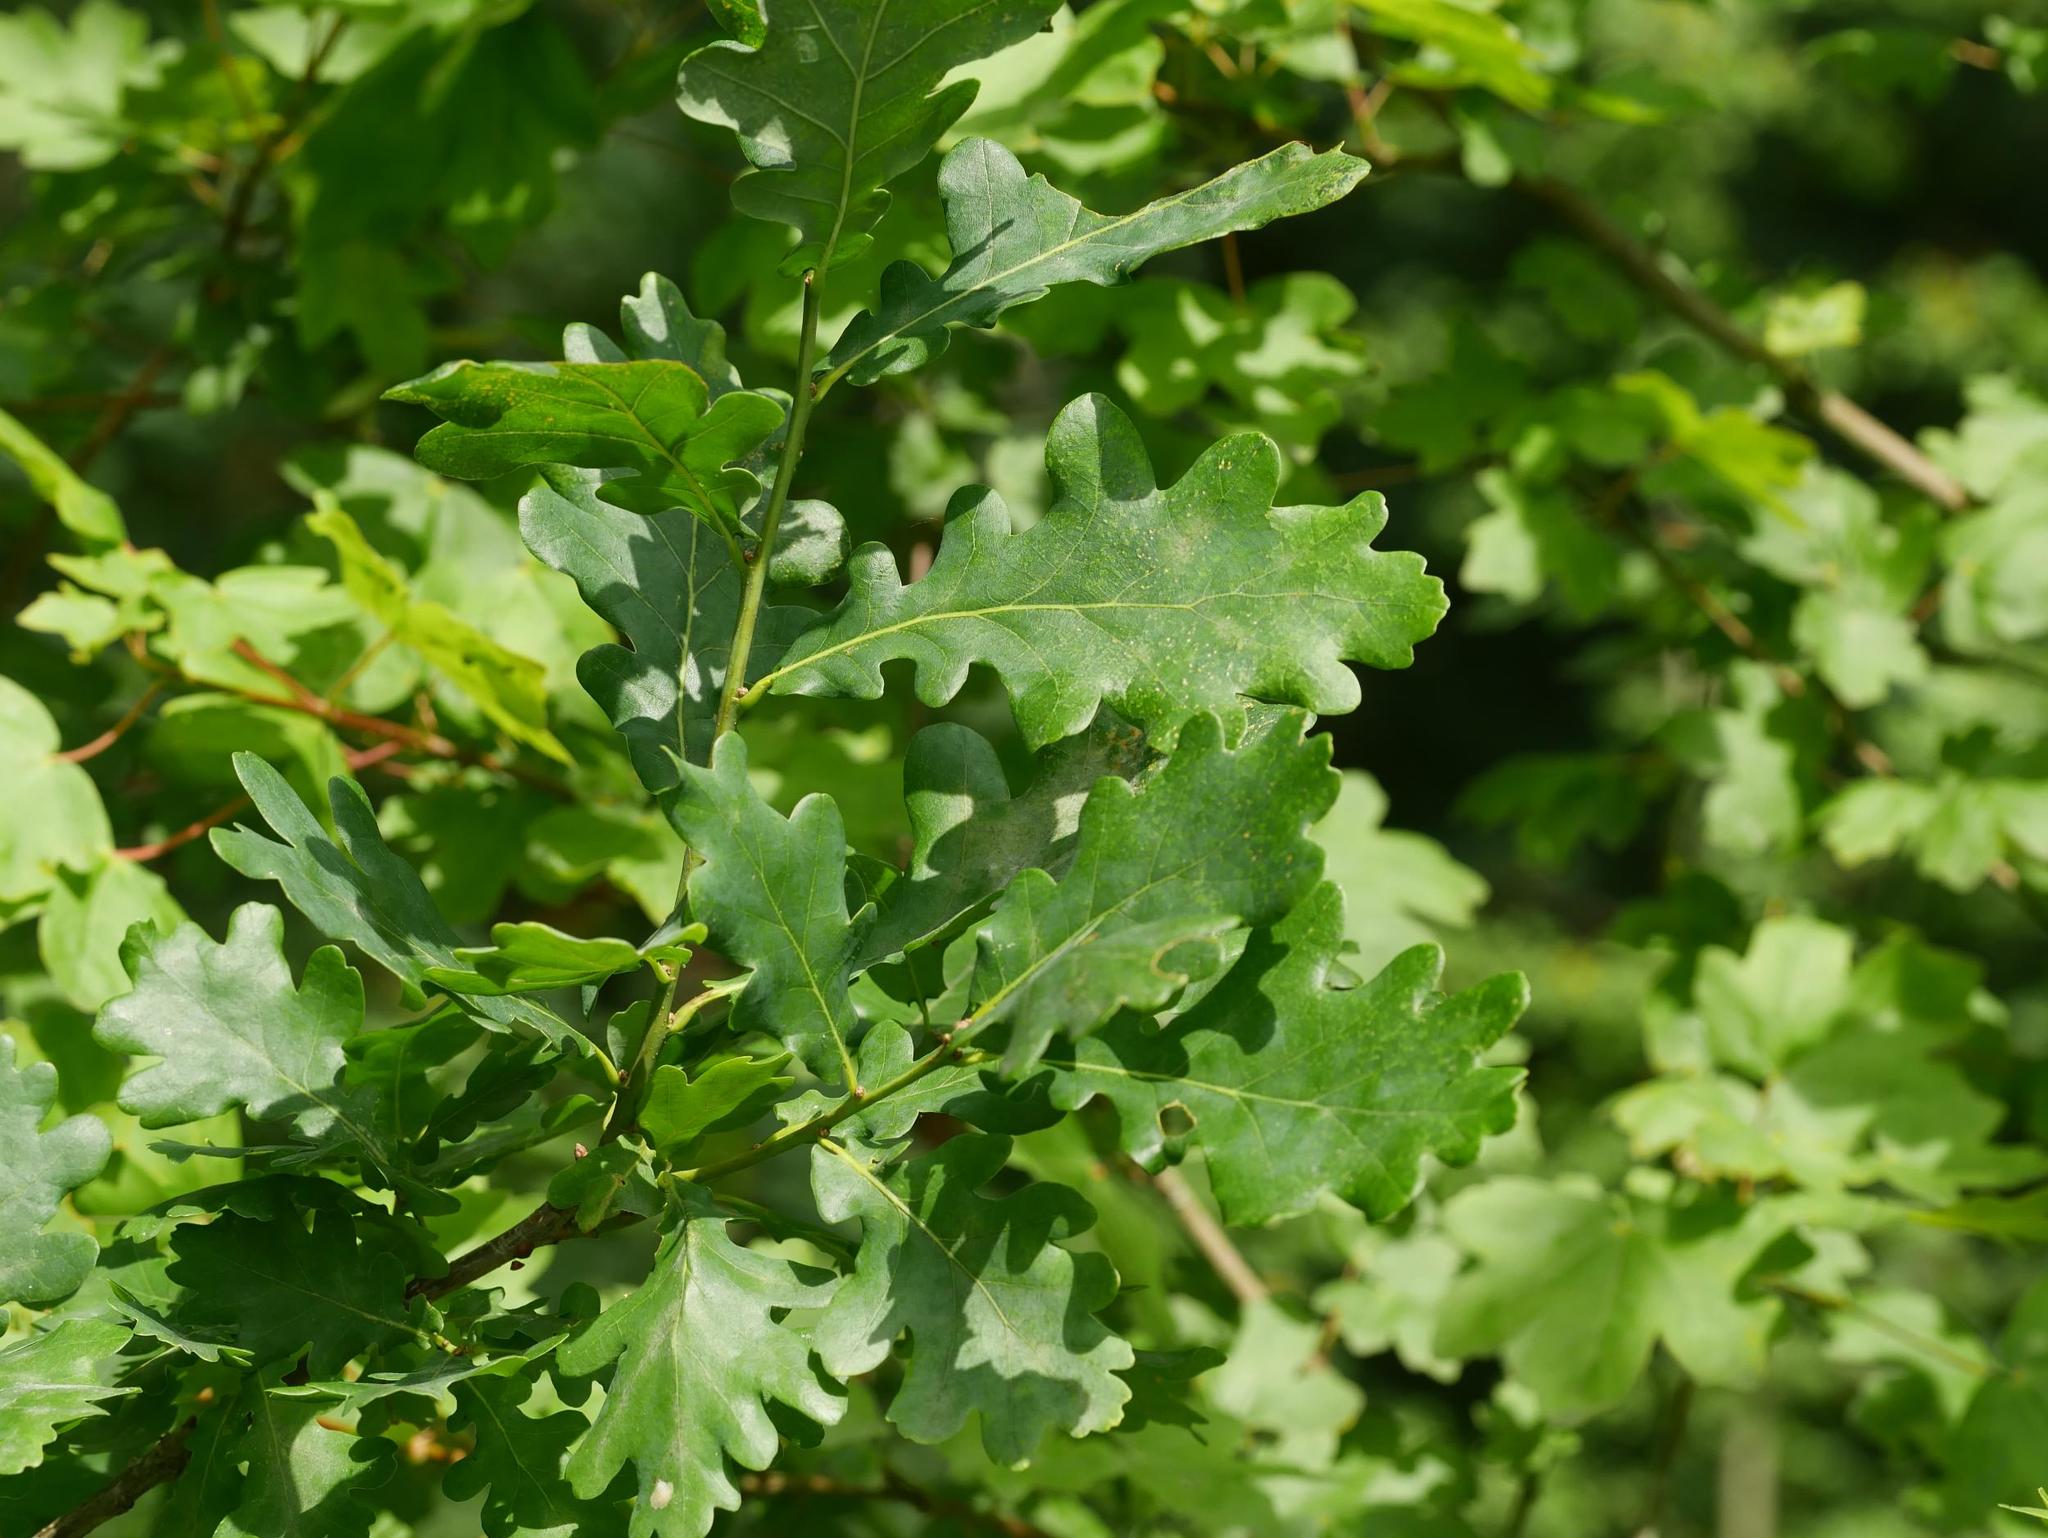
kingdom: Plantae
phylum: Tracheophyta
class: Magnoliopsida
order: Fagales
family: Fagaceae
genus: Quercus
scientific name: Quercus robur
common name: Pedunculate oak
